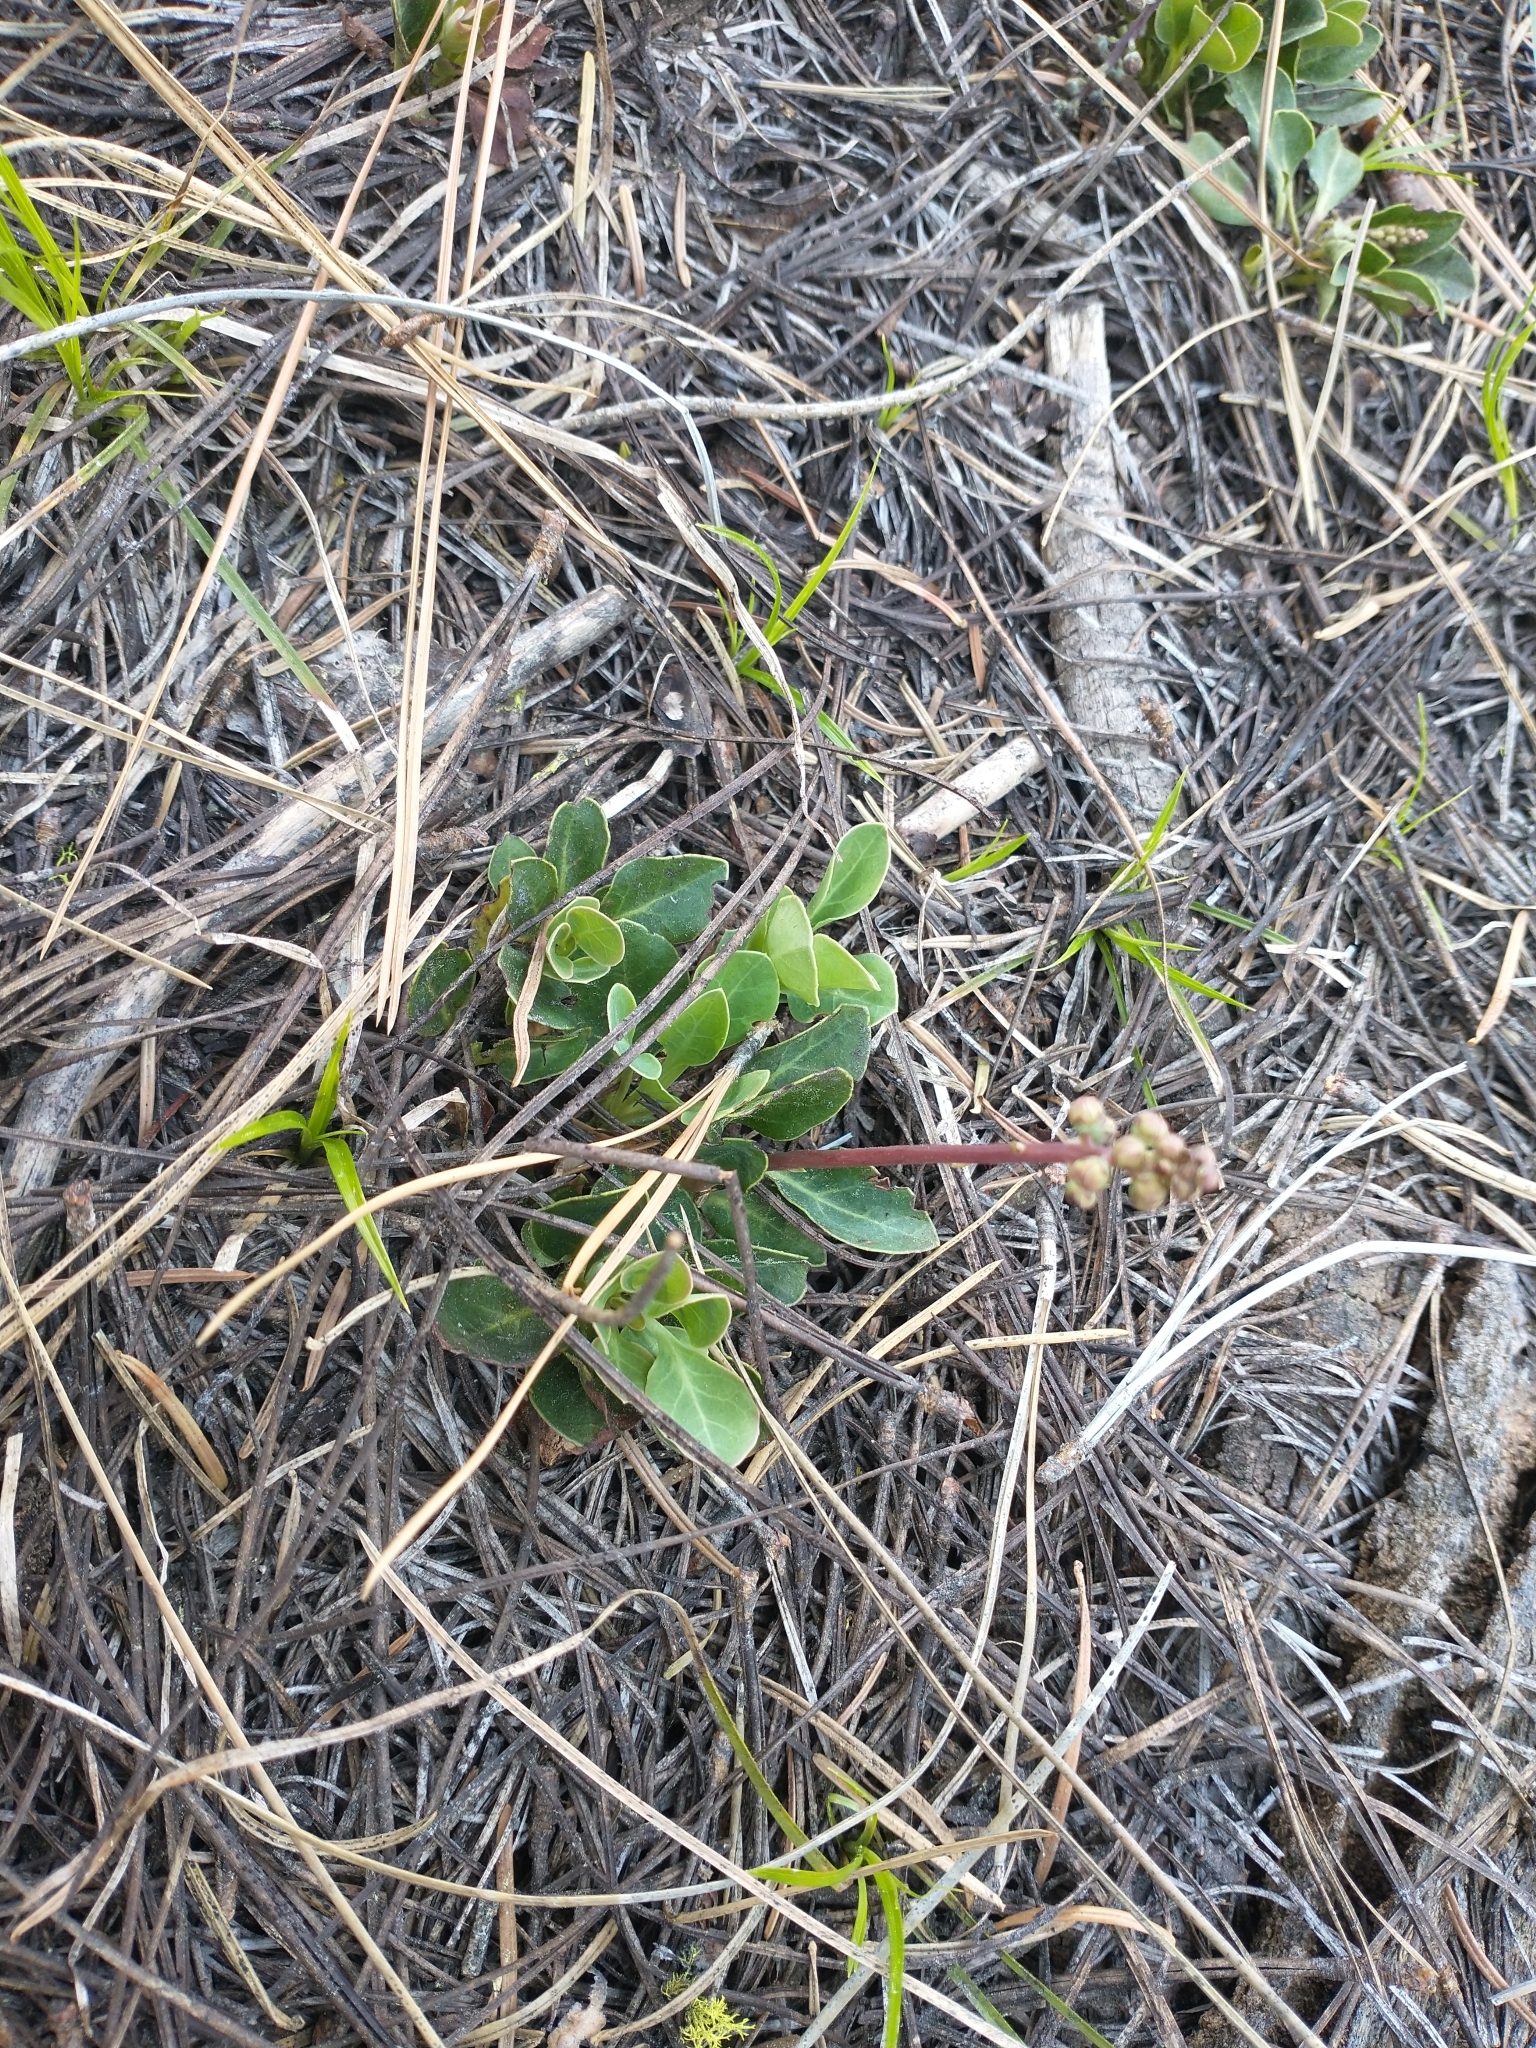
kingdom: Plantae
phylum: Tracheophyta
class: Magnoliopsida
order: Ericales
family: Ericaceae
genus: Pyrola
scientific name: Pyrola dentata
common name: Tooth-leaved wintergreen
